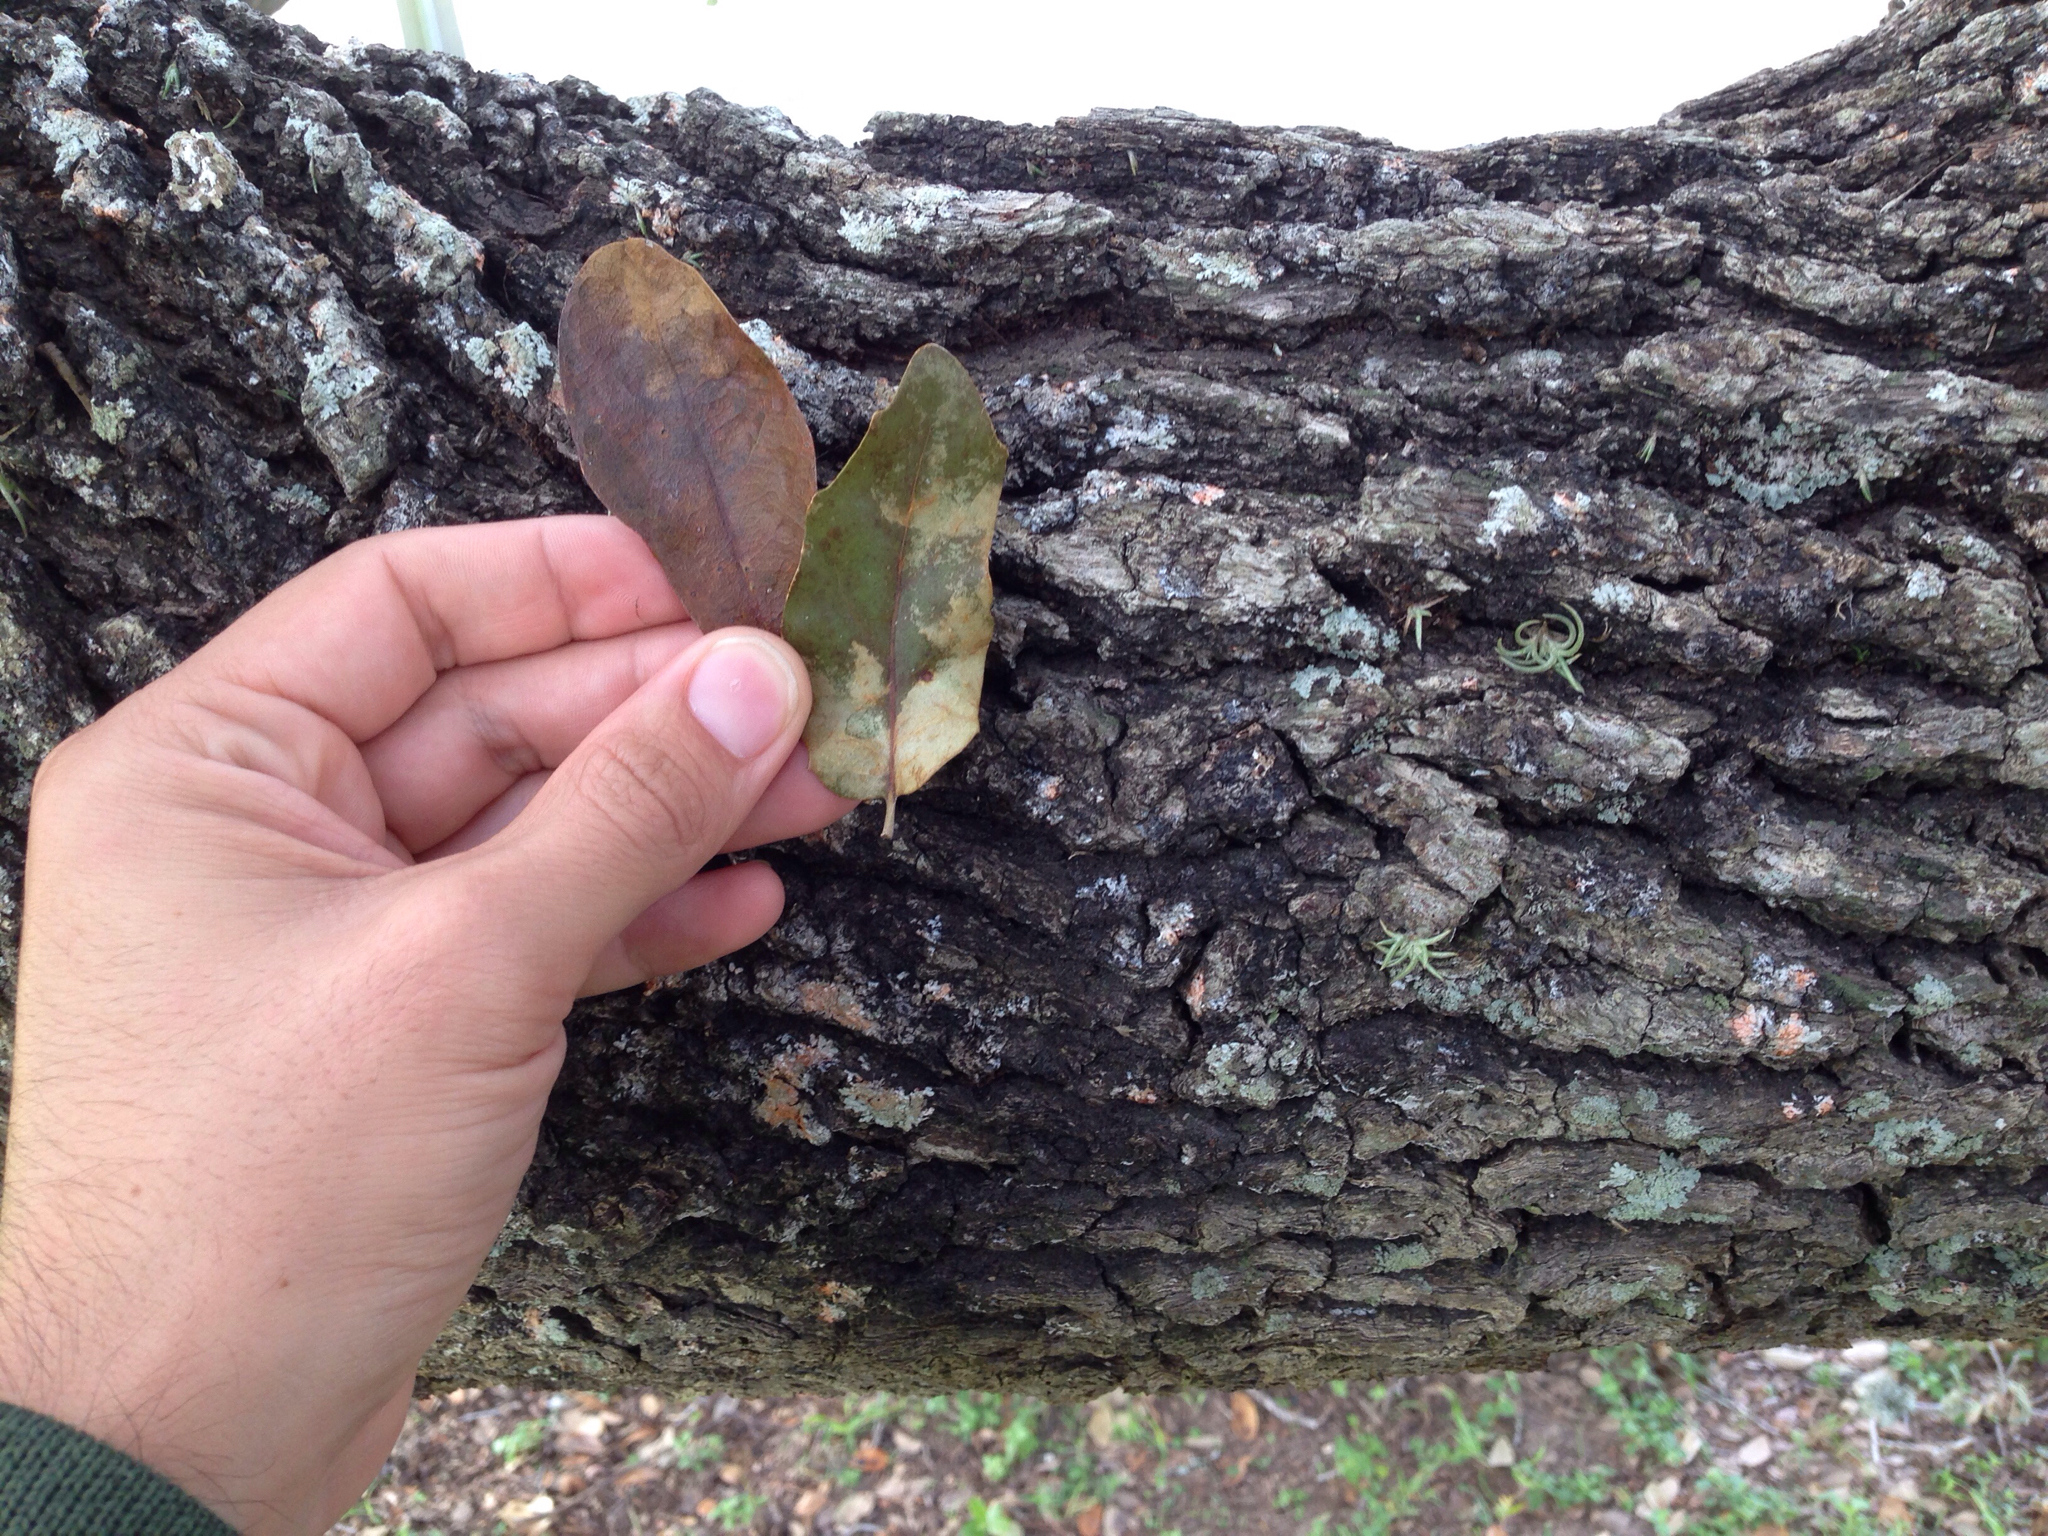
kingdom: Plantae
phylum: Tracheophyta
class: Magnoliopsida
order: Fagales
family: Fagaceae
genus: Quercus
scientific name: Quercus virginiana
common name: Southern live oak
